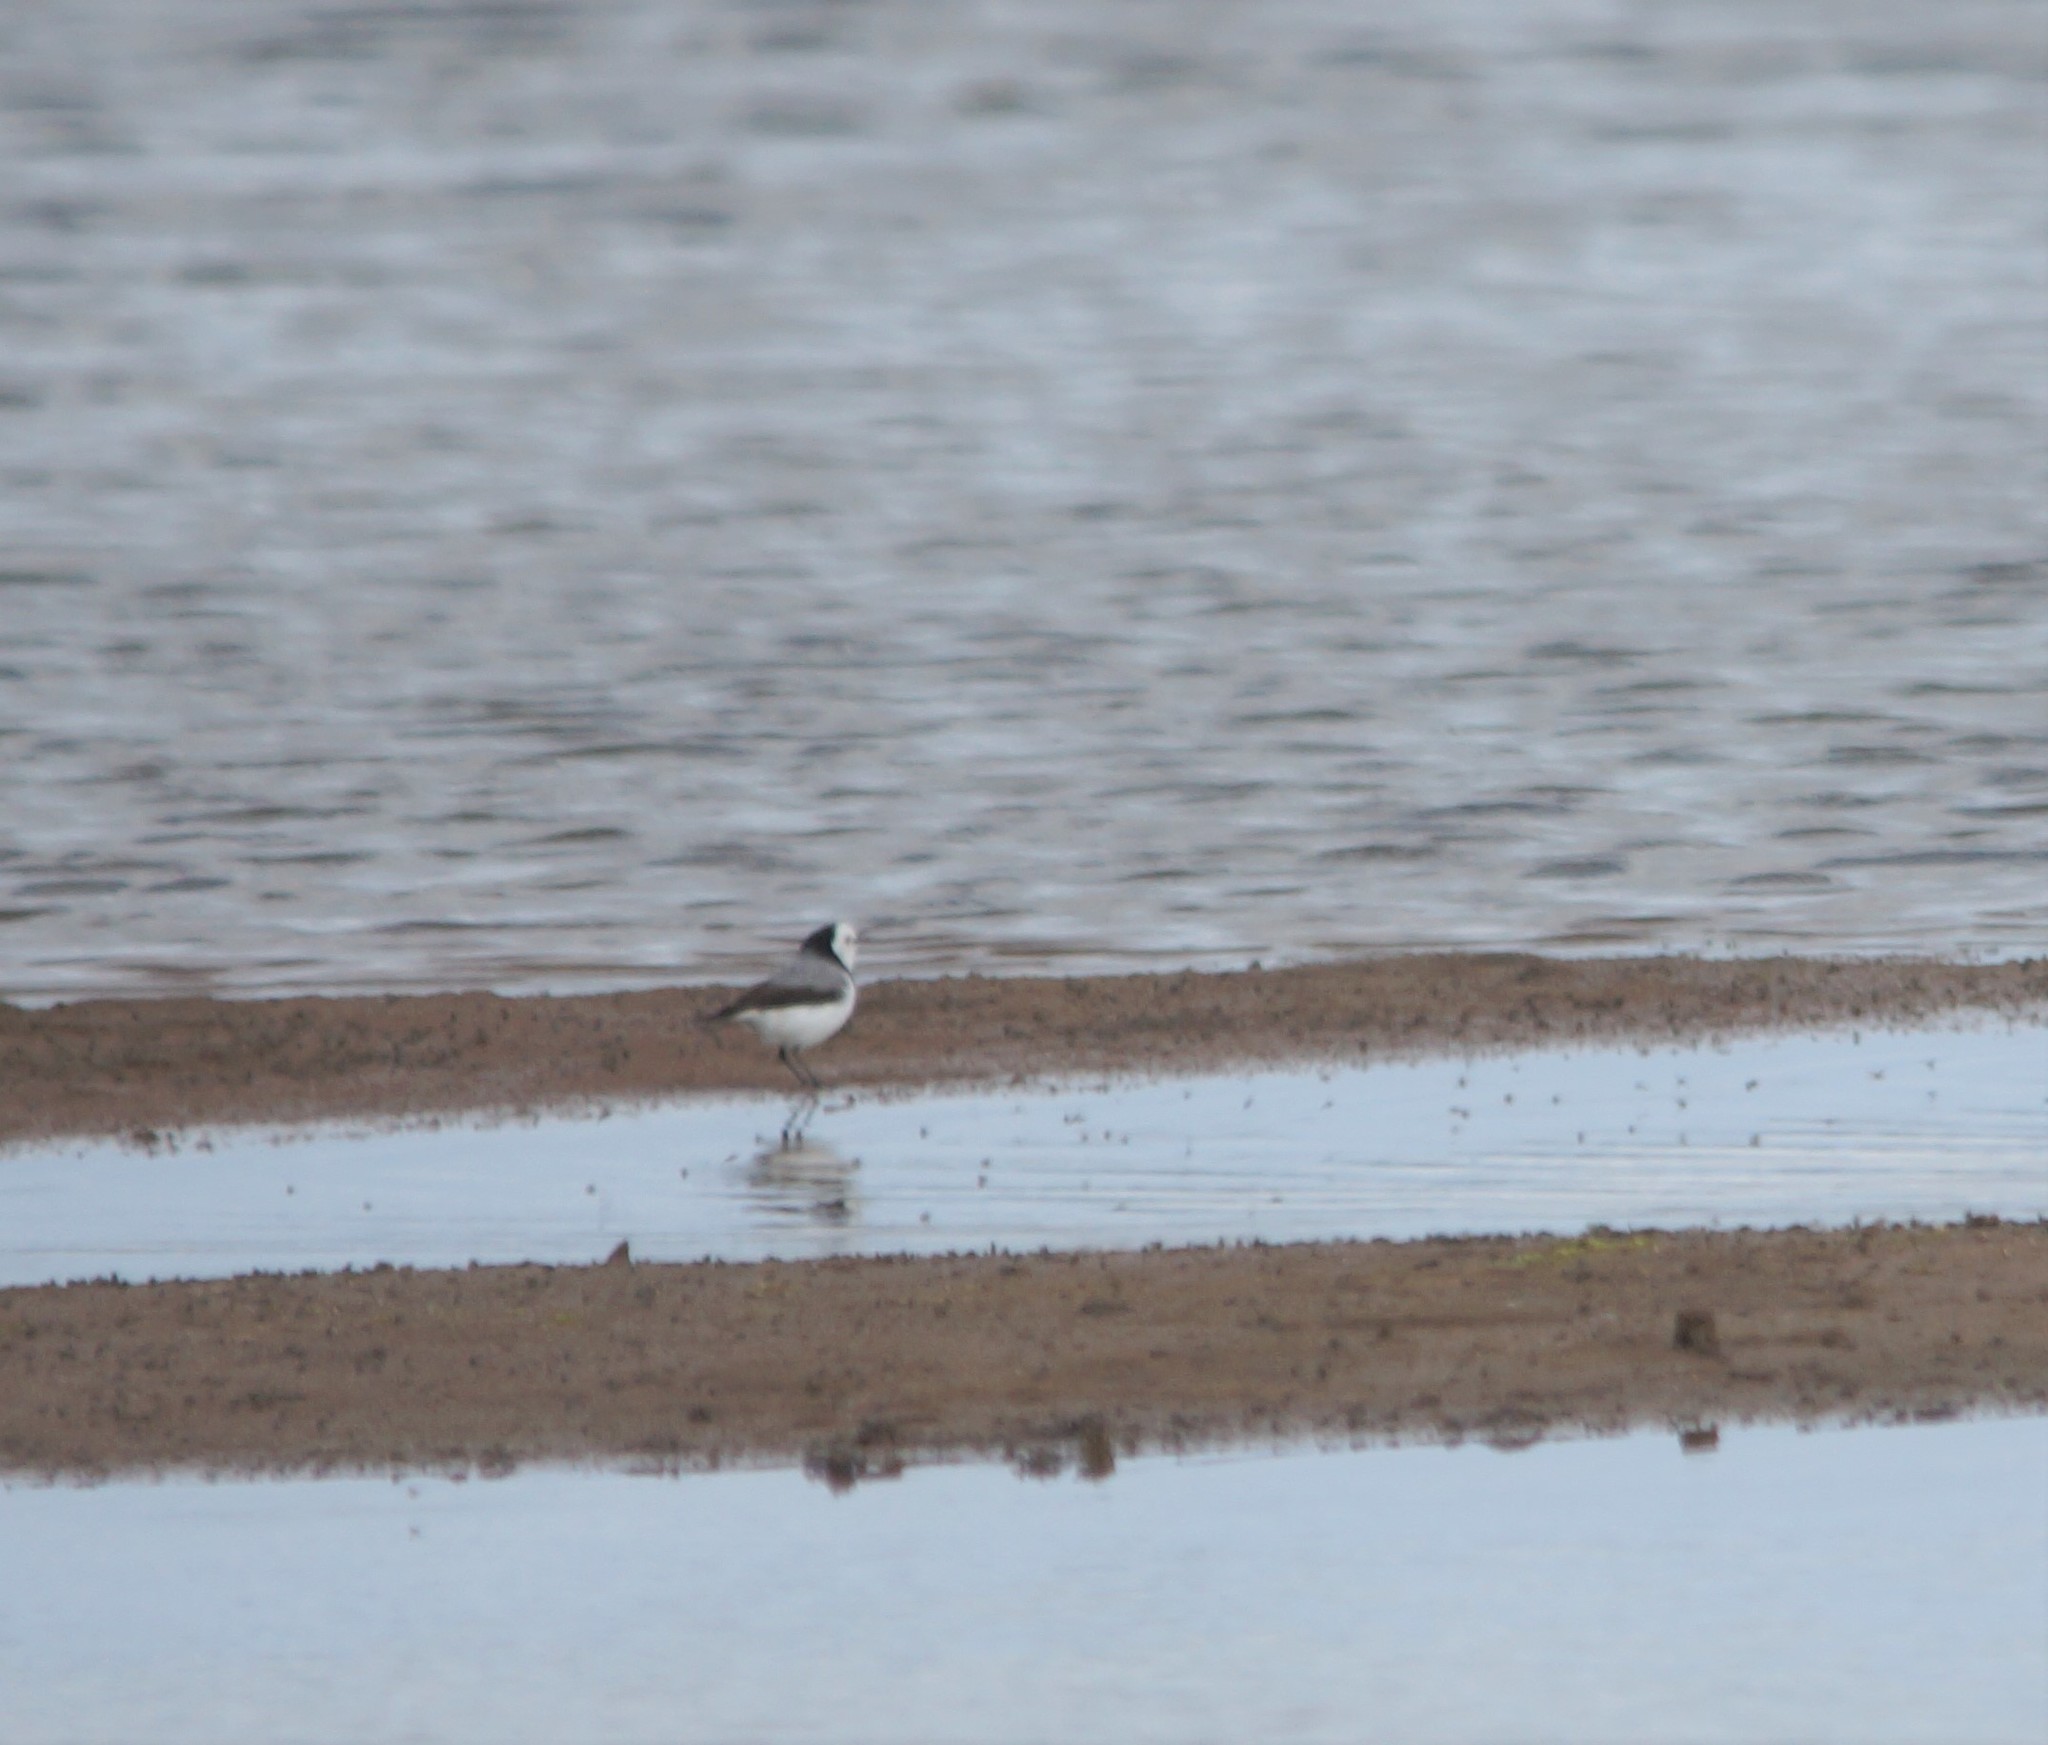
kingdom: Animalia
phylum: Chordata
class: Aves
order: Passeriformes
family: Meliphagidae
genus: Epthianura
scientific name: Epthianura albifrons
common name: White-fronted chat
